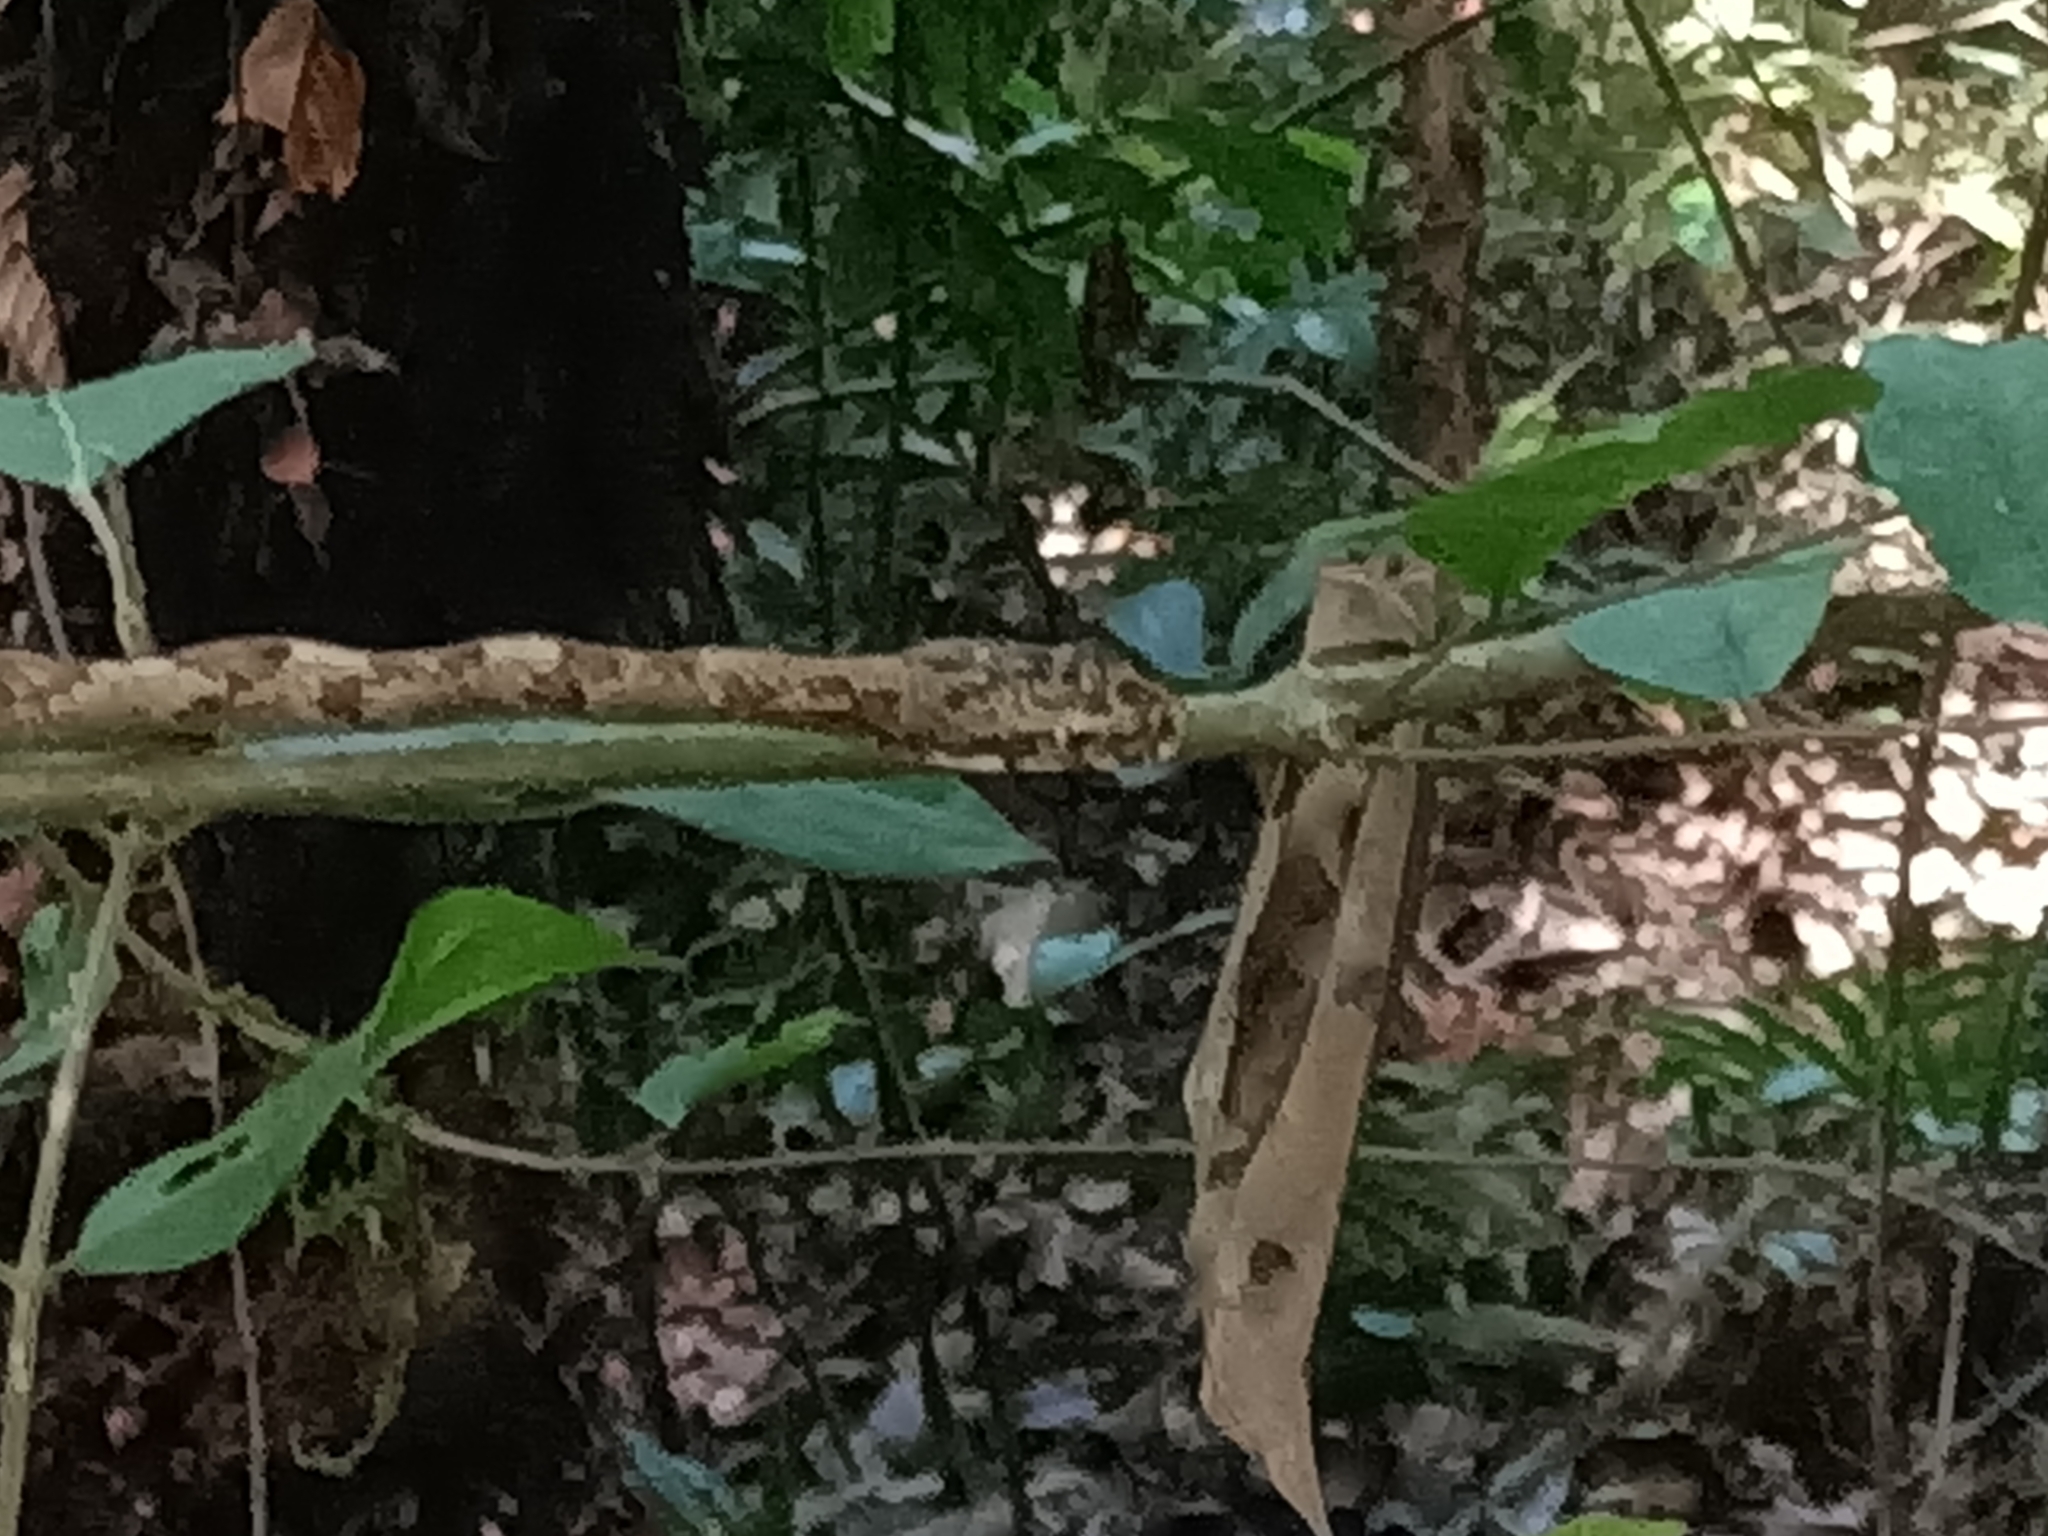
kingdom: Animalia
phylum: Chordata
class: Squamata
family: Colubridae
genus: Chironius
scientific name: Chironius quadricarinatus
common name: Central sipo
